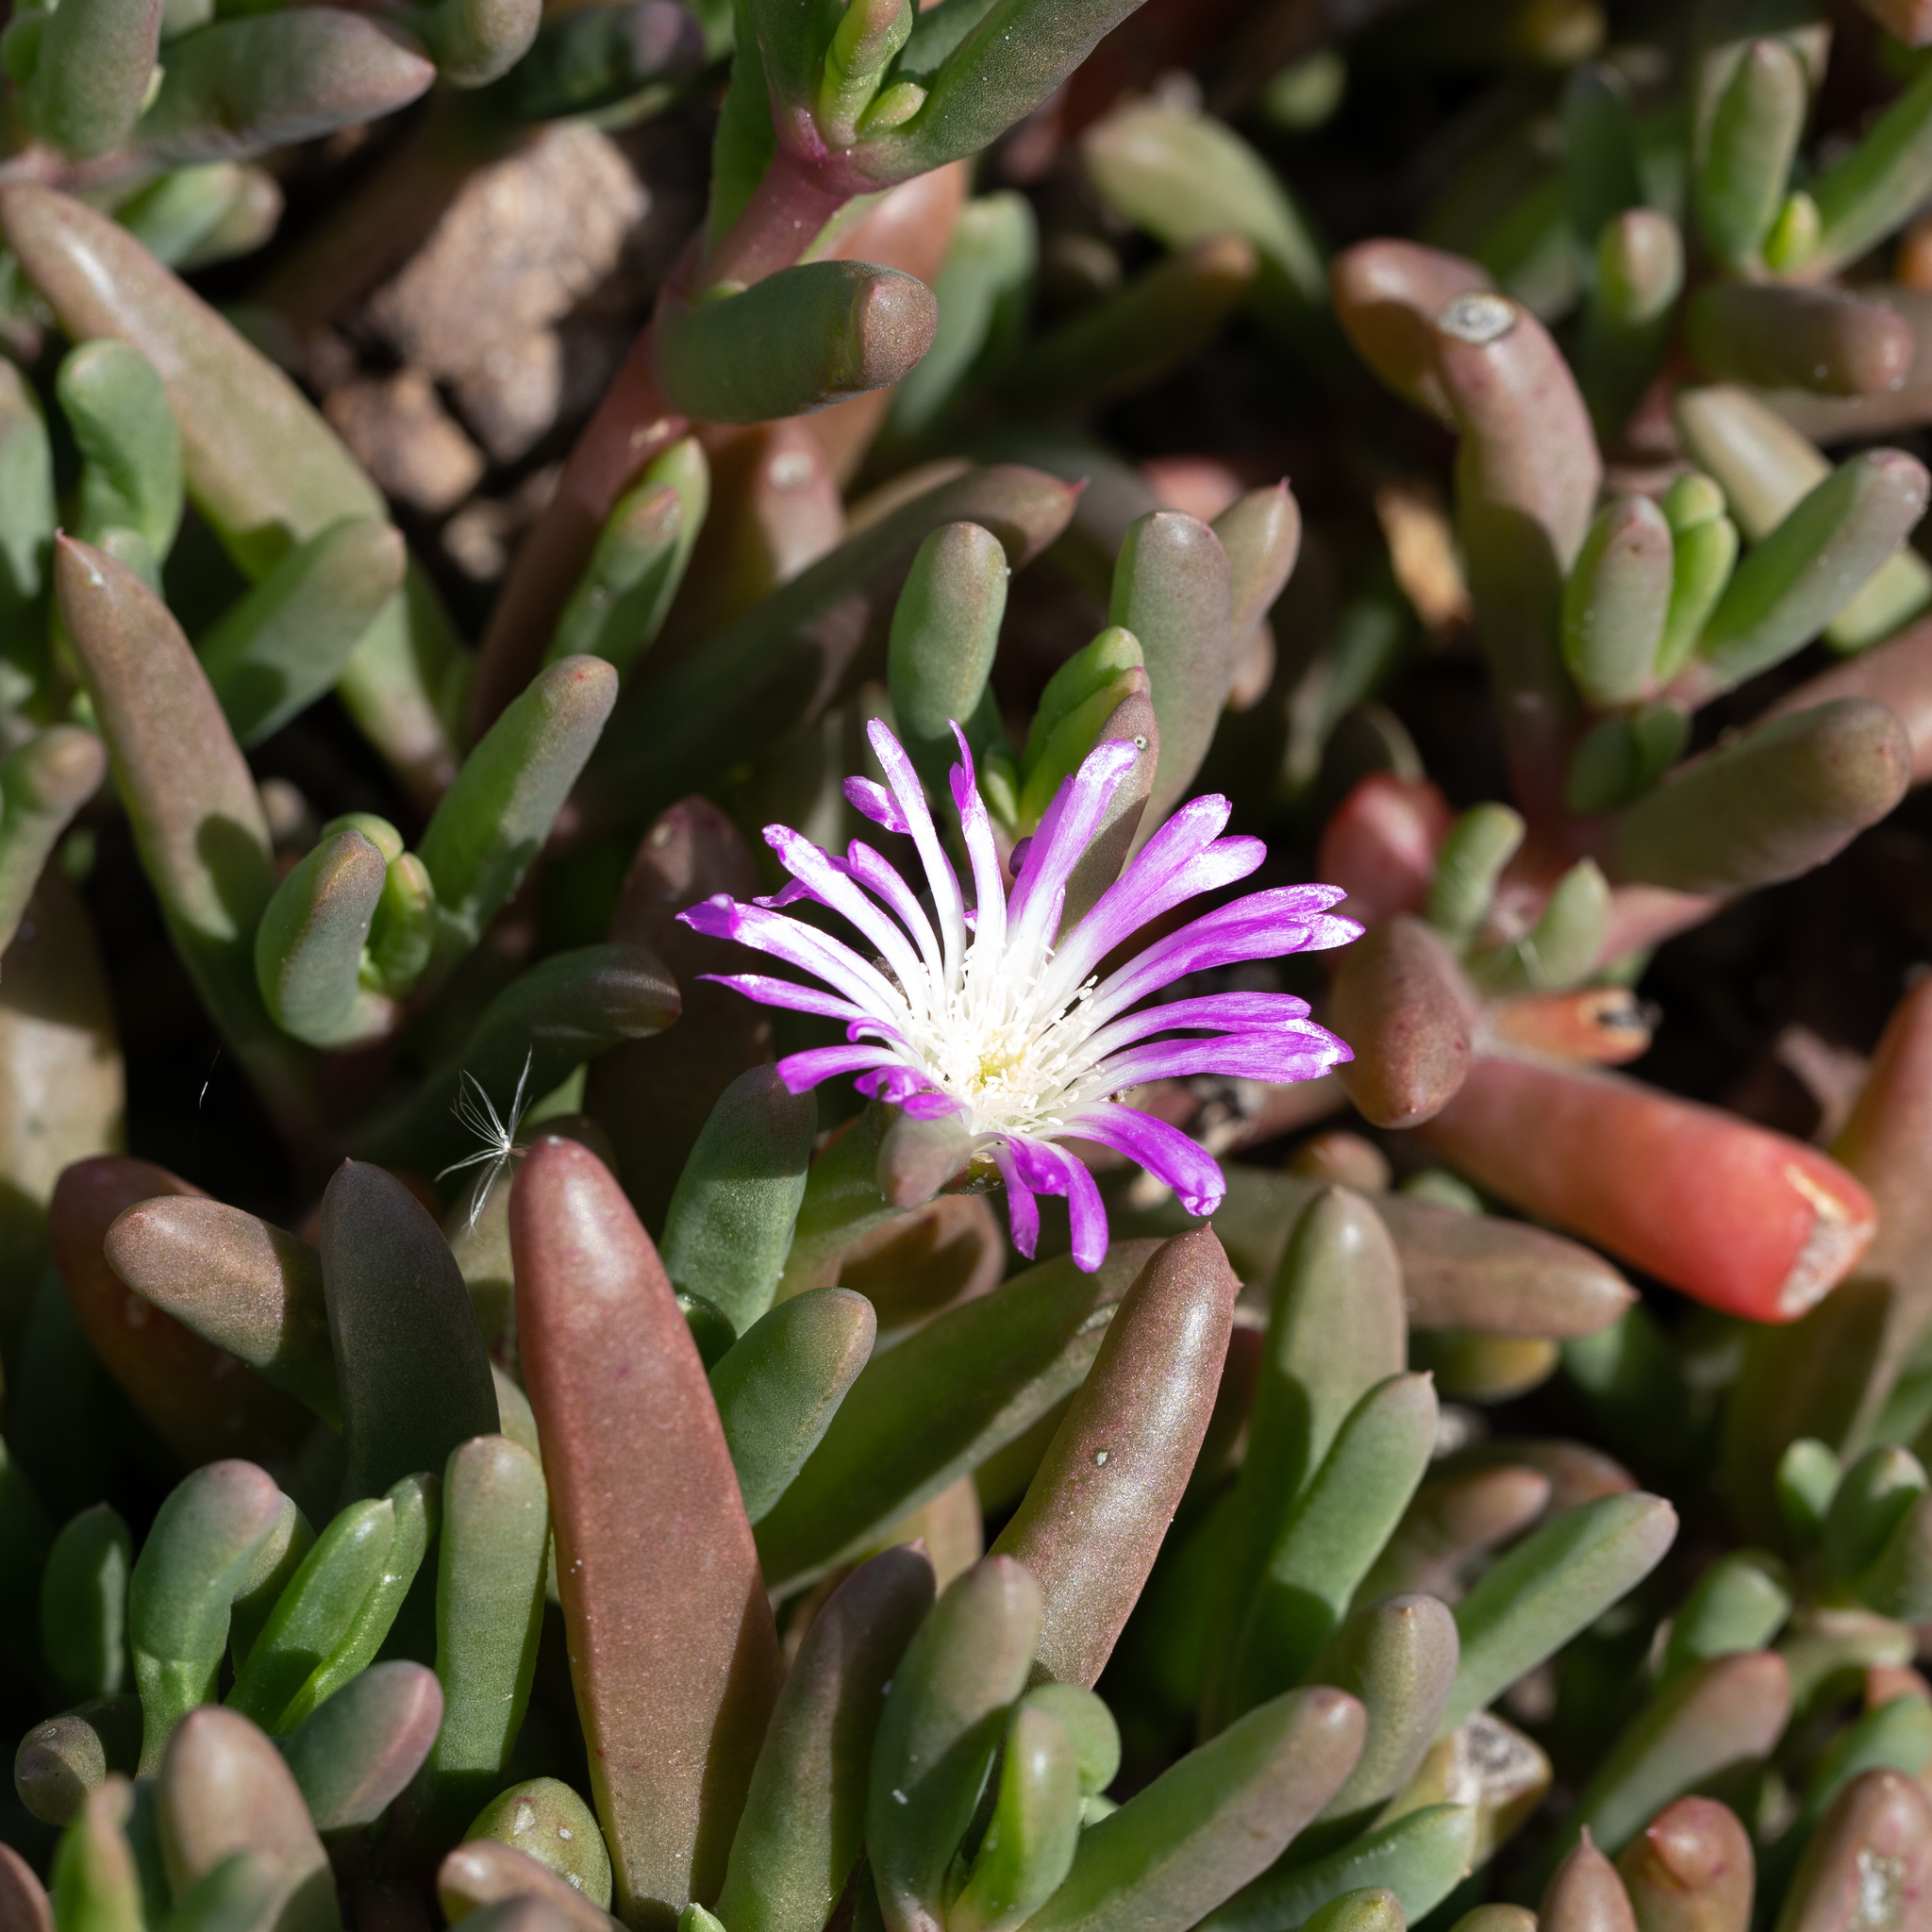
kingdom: Plantae
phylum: Tracheophyta
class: Magnoliopsida
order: Caryophyllales
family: Aizoaceae
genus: Disphyma
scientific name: Disphyma clavellatum
